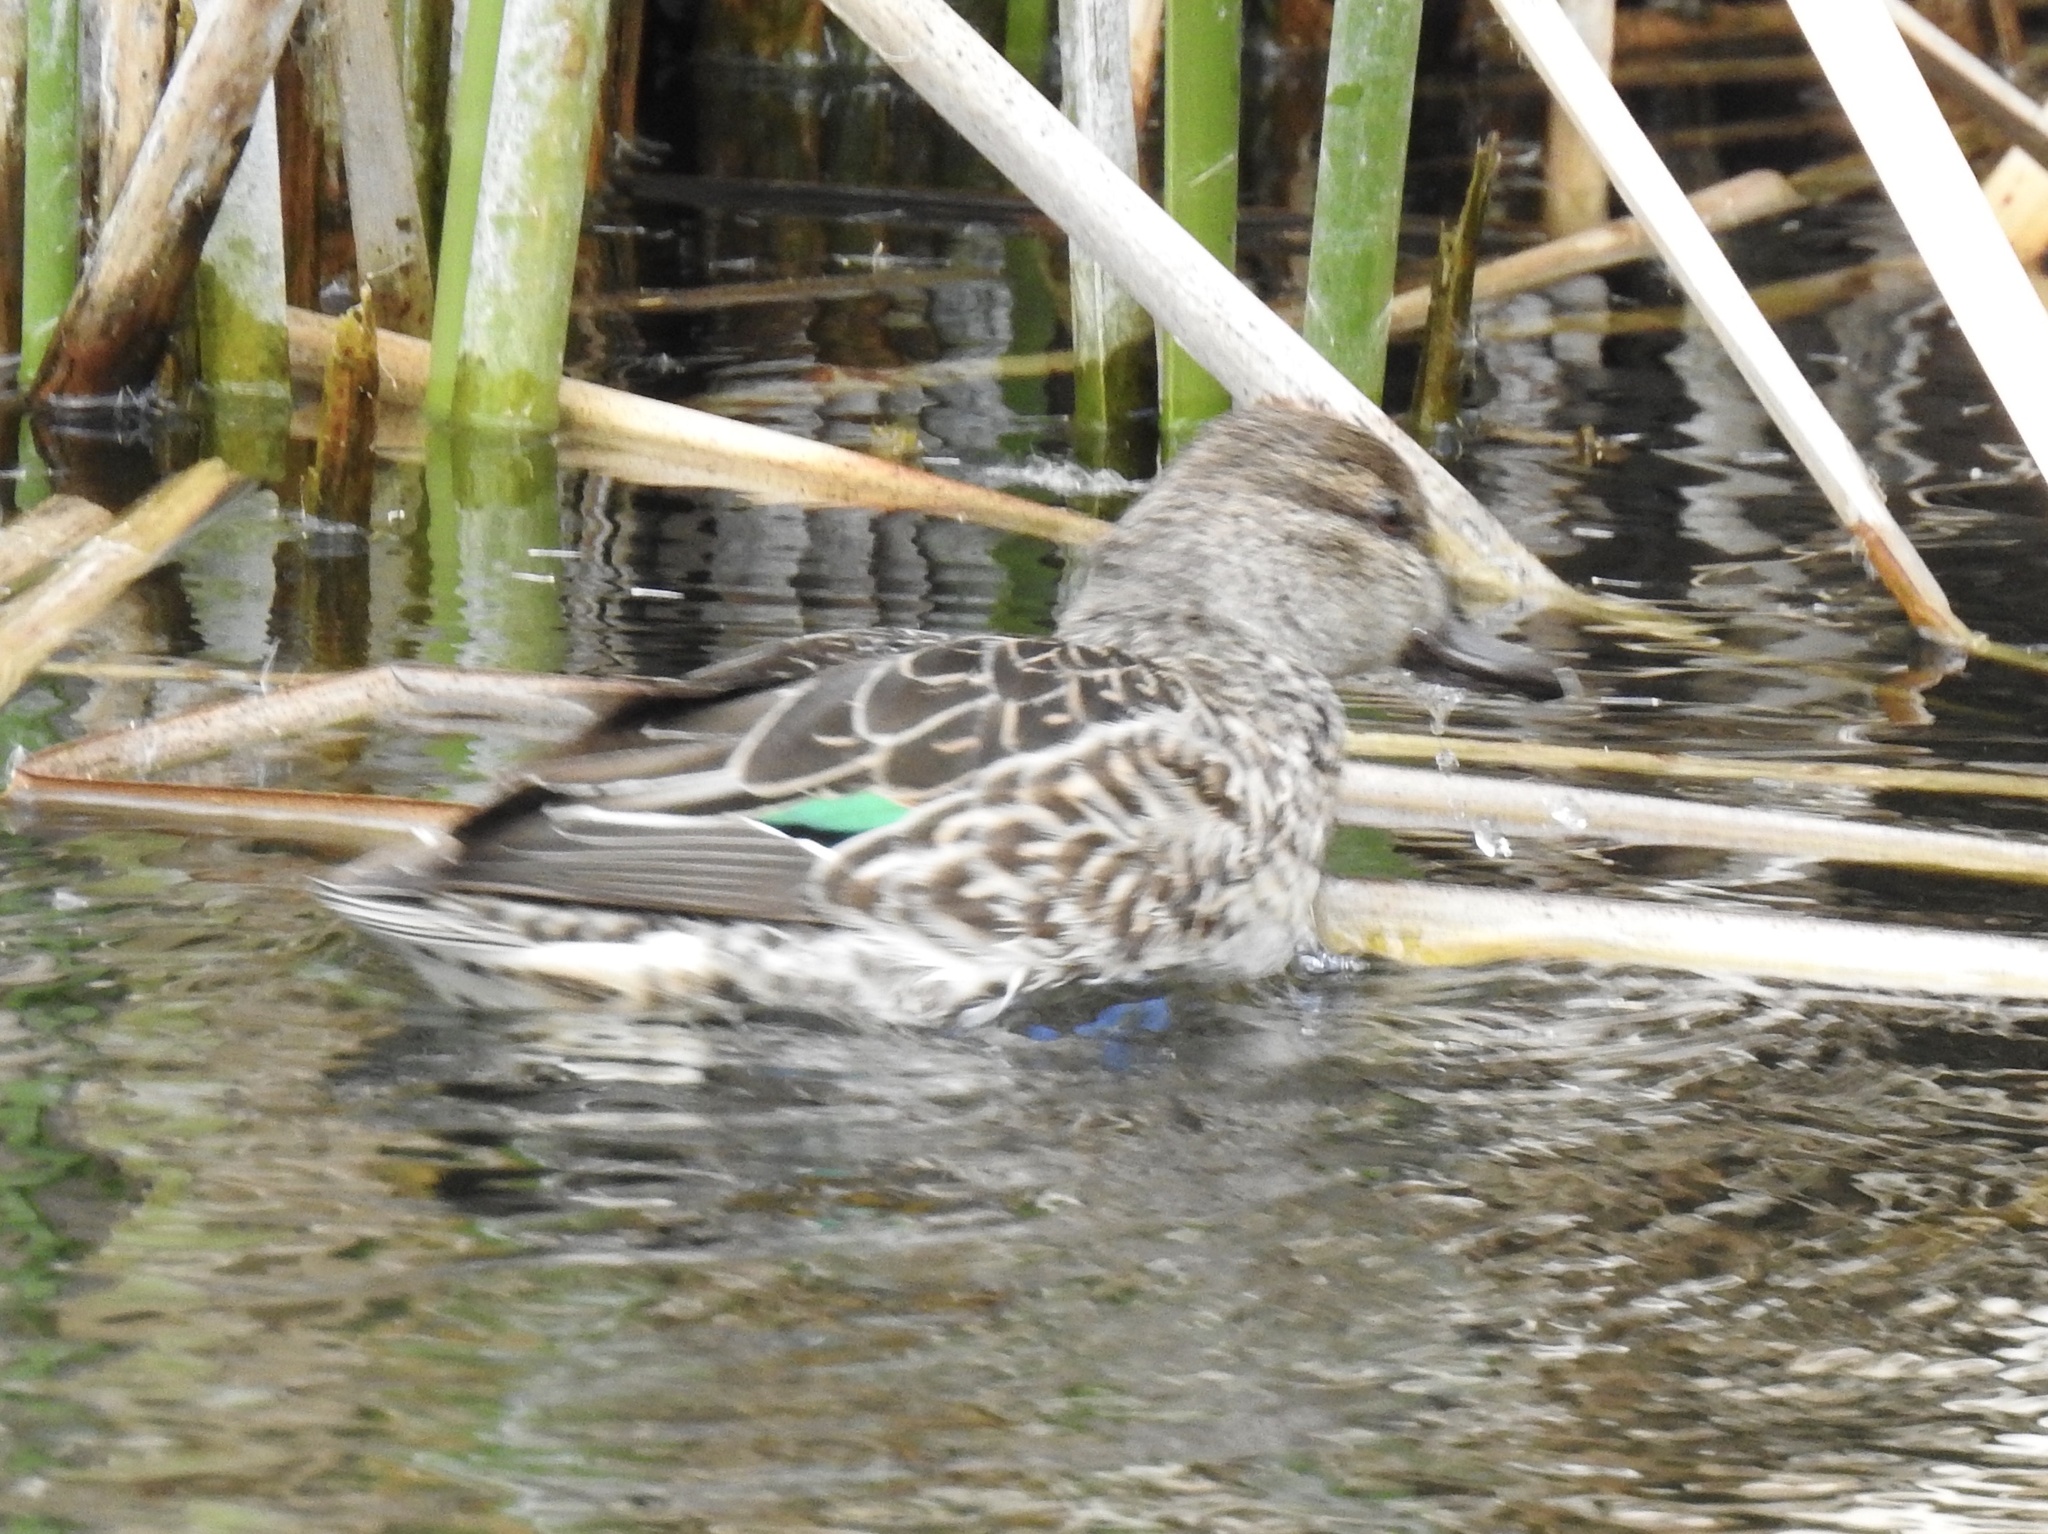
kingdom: Animalia
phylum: Chordata
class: Aves
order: Anseriformes
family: Anatidae
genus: Anas
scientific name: Anas crecca
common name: Eurasian teal
